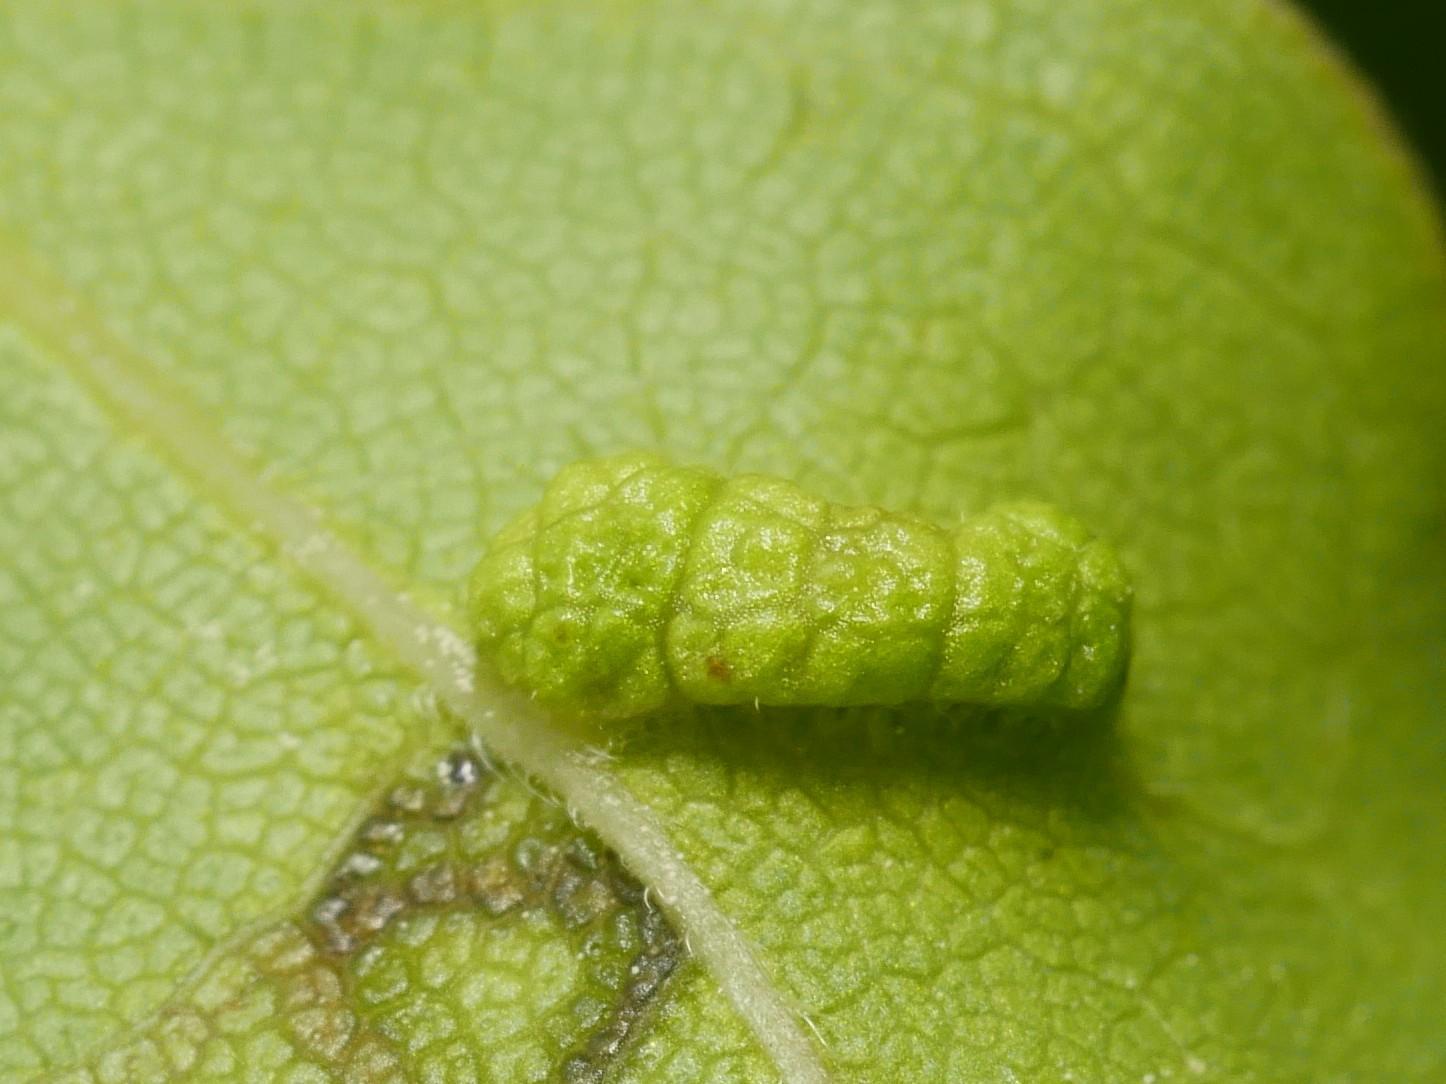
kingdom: Animalia
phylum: Arthropoda
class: Arachnida
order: Trombidiformes
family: Eriophyidae
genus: Aceria
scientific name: Aceria carinifex
